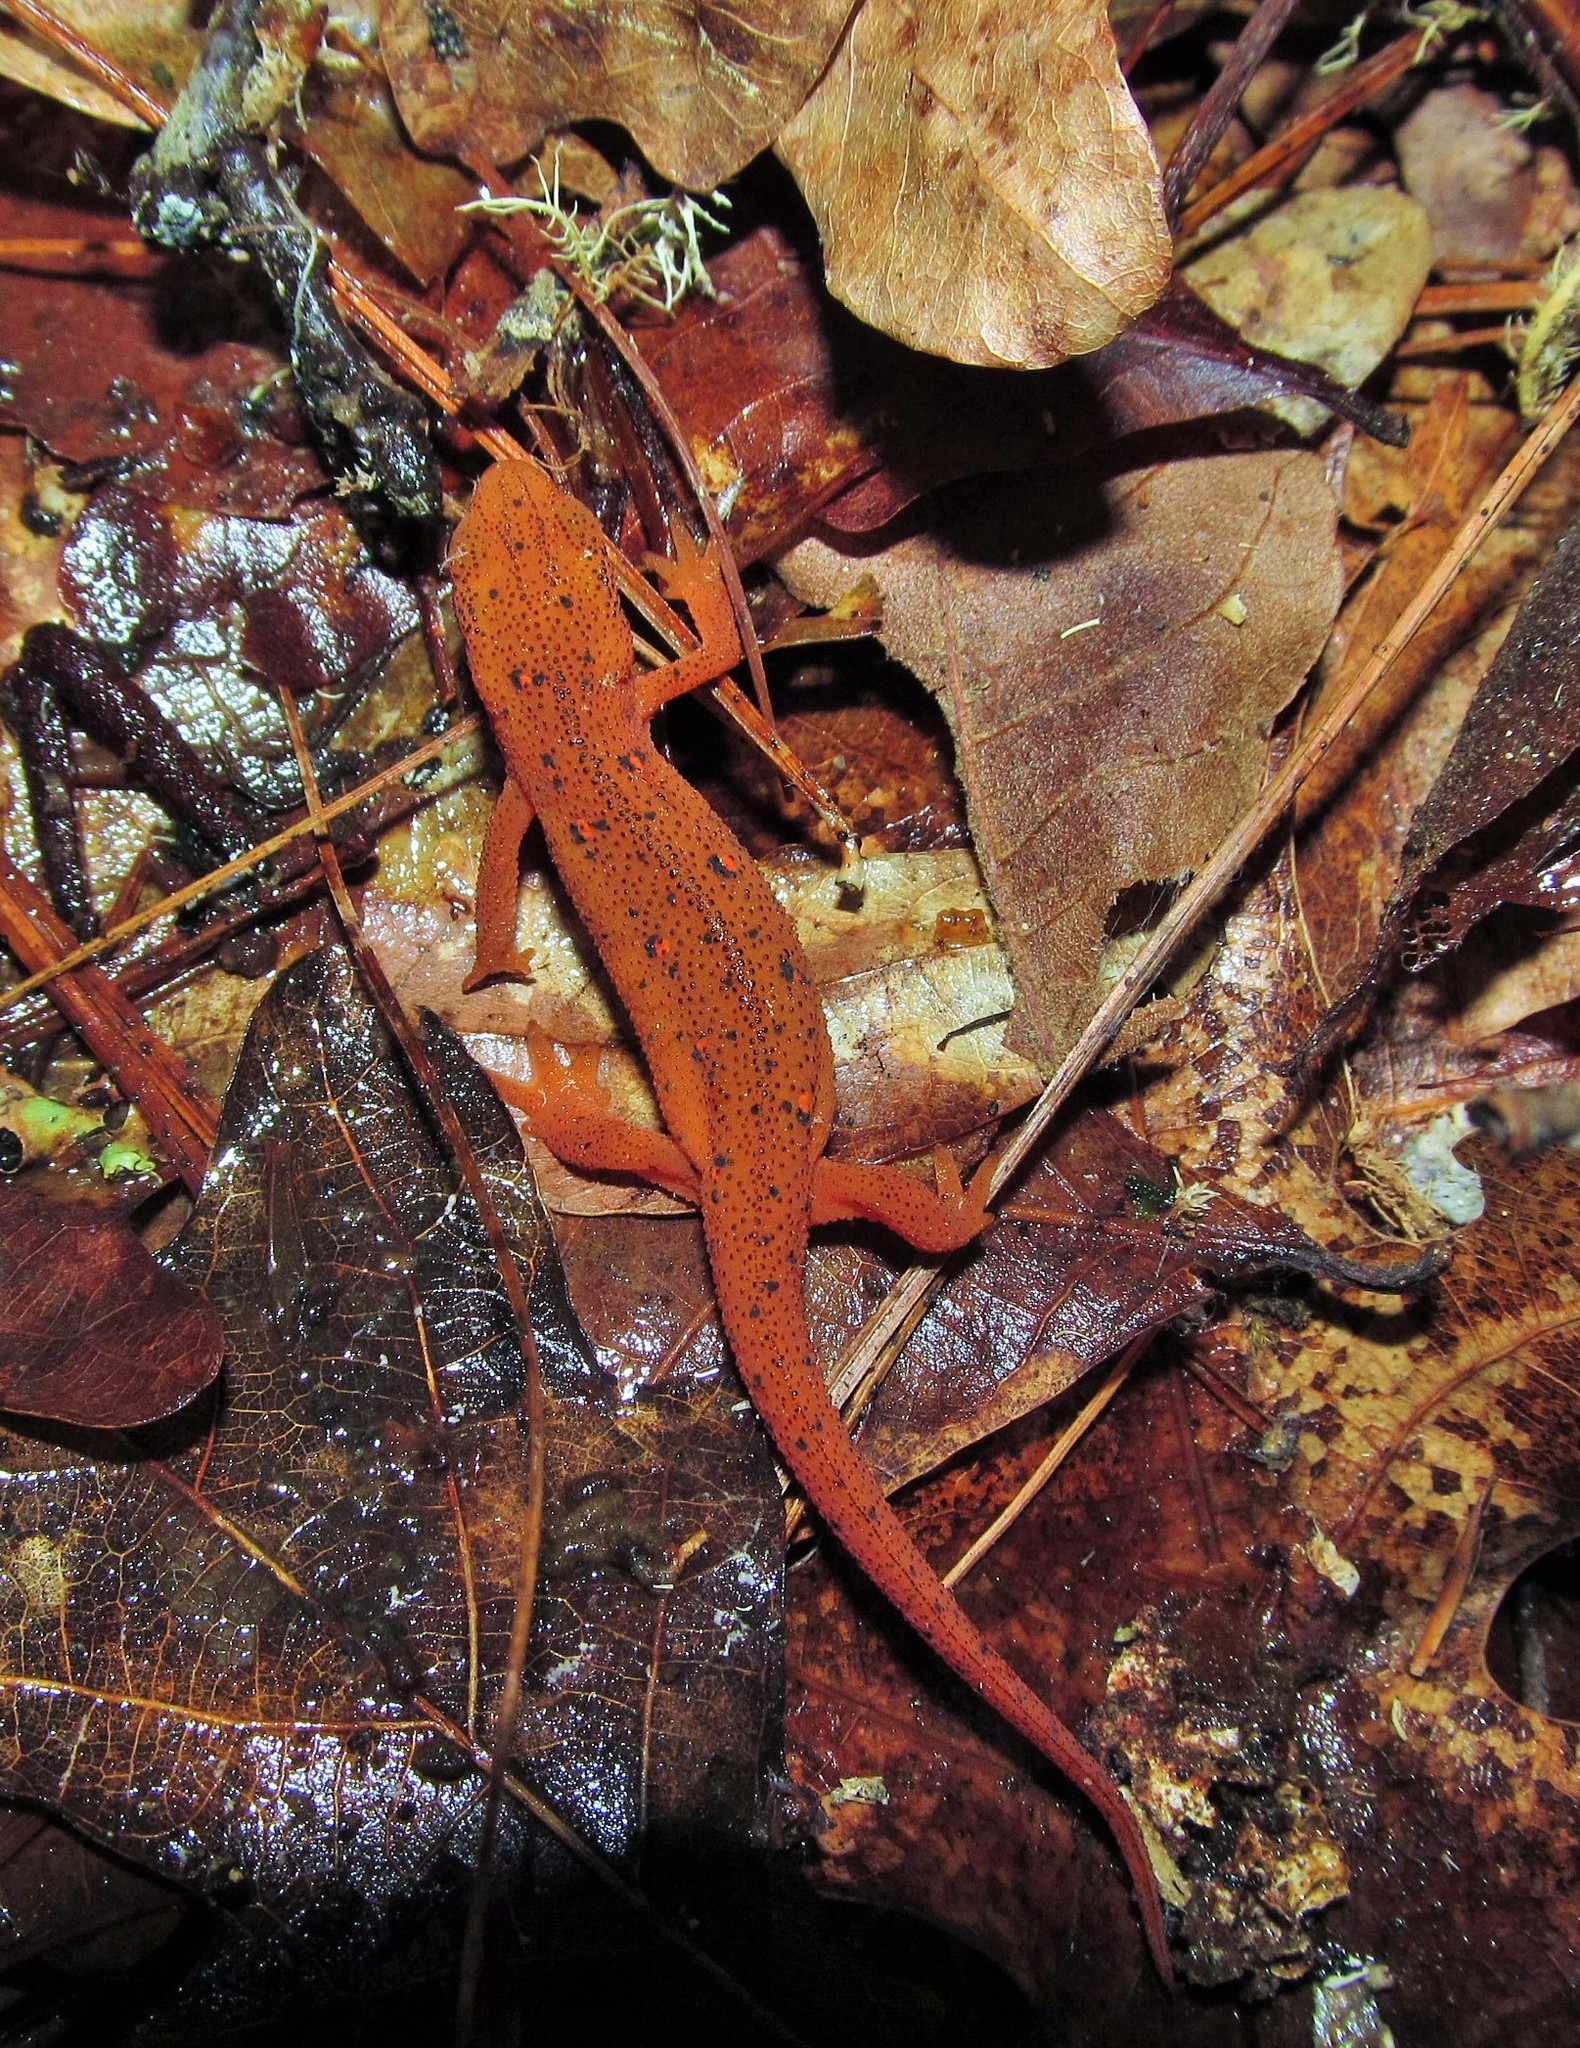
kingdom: Animalia
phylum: Chordata
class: Amphibia
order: Caudata
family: Salamandridae
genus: Notophthalmus
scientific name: Notophthalmus viridescens
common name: Eastern newt
